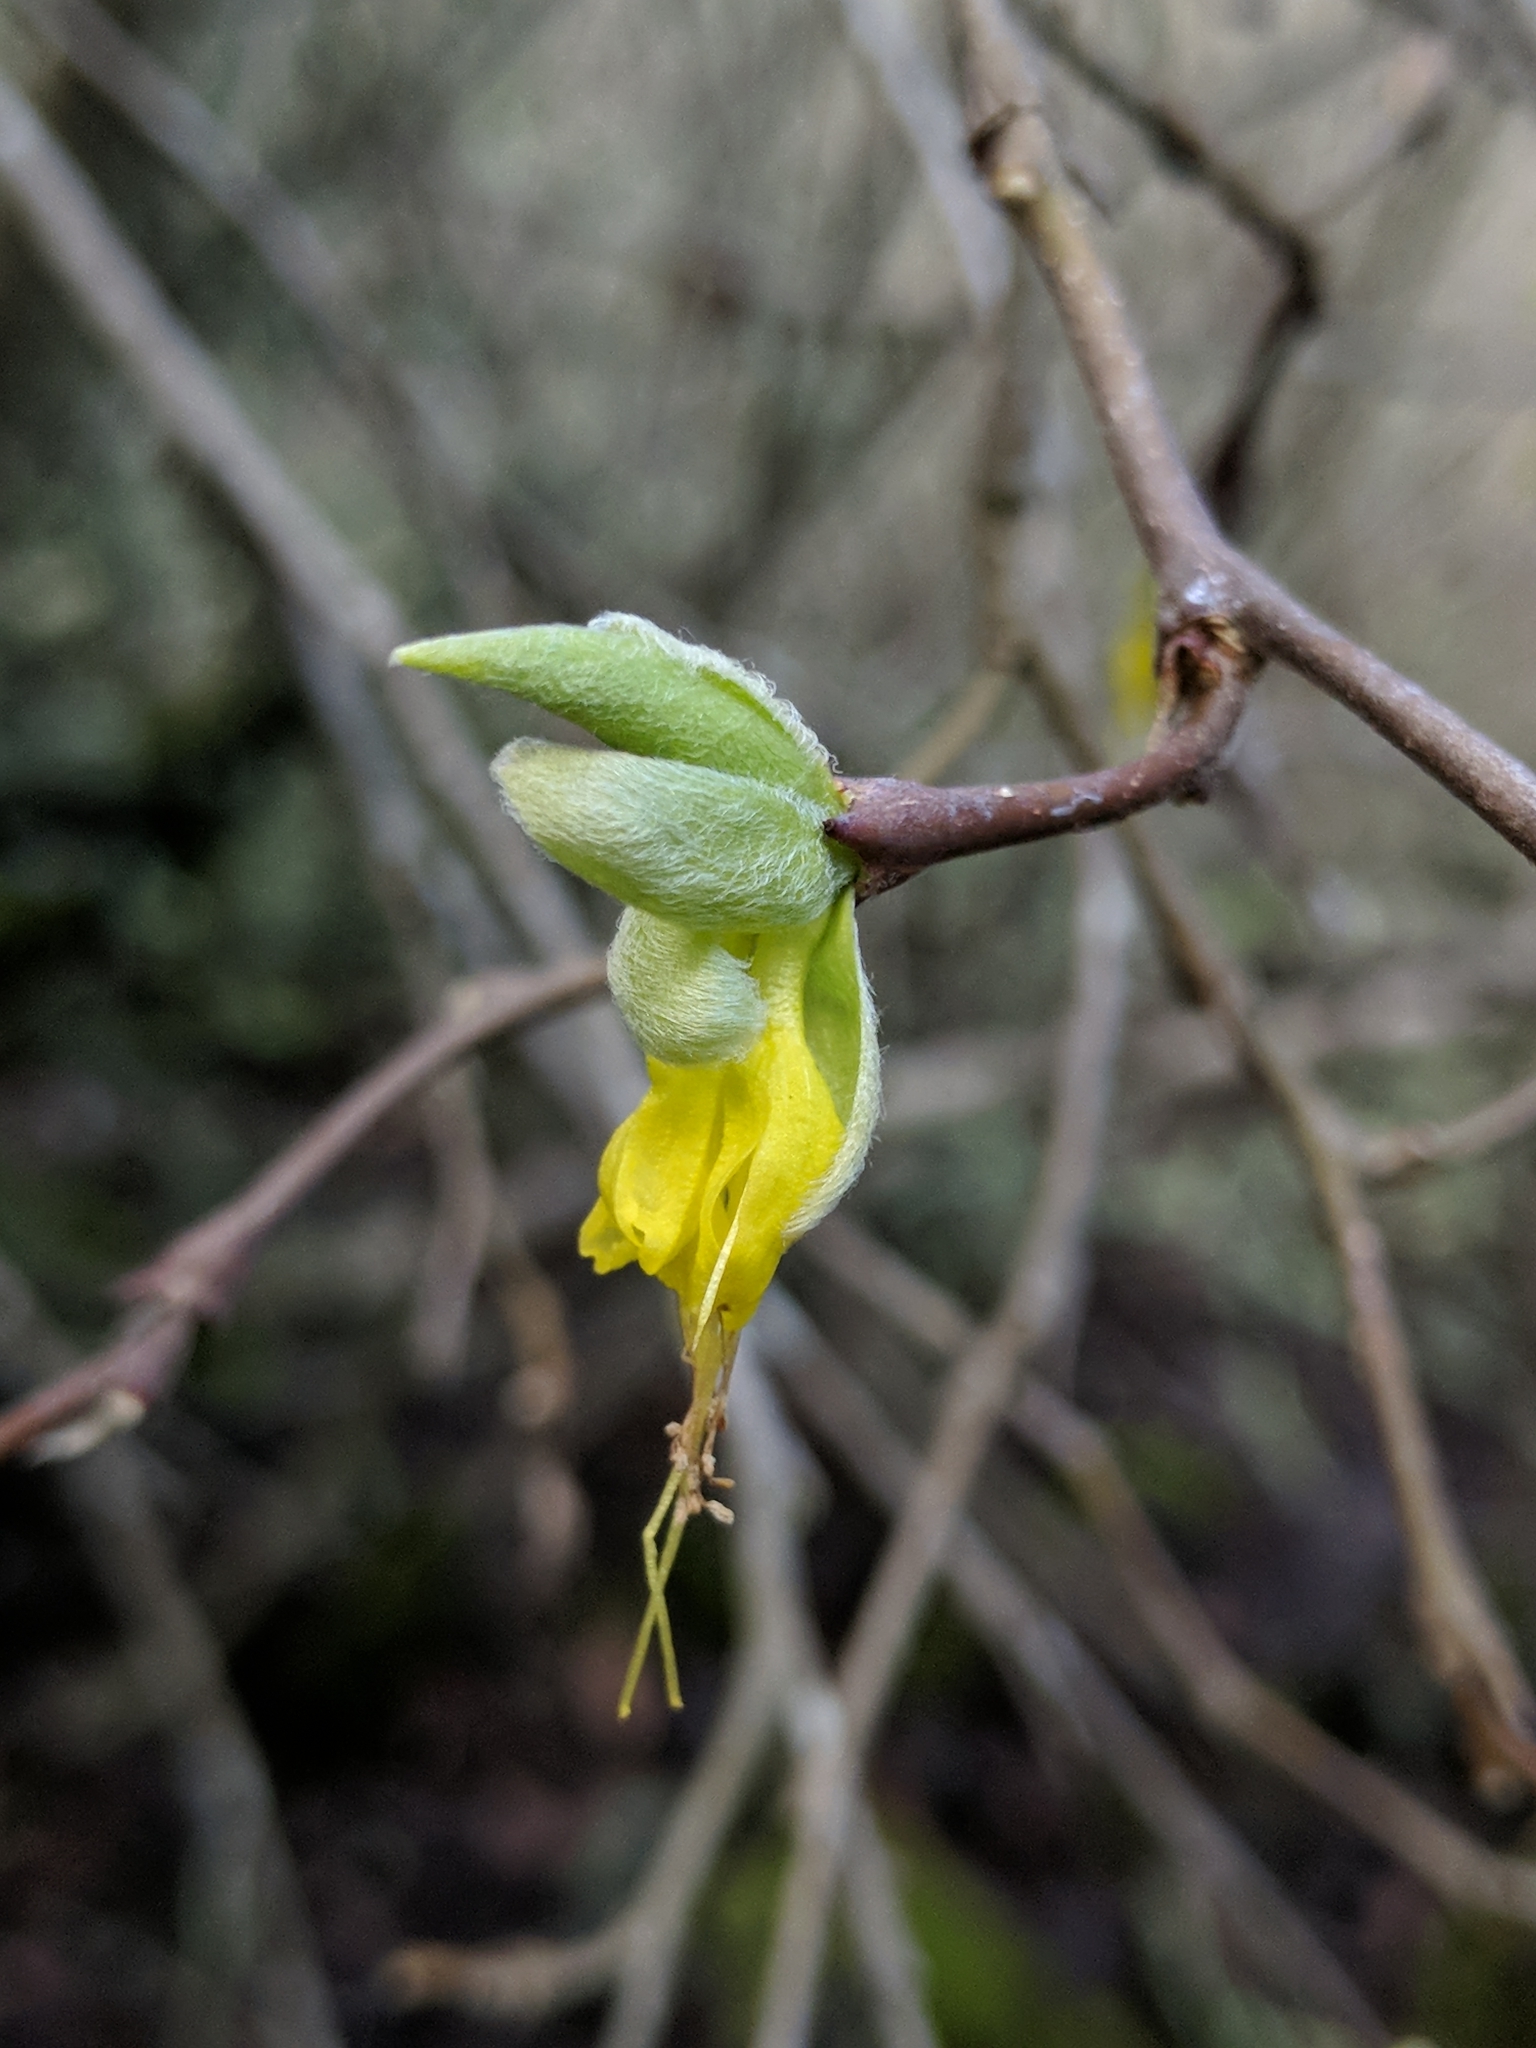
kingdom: Plantae
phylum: Tracheophyta
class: Magnoliopsida
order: Malvales
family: Thymelaeaceae
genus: Dirca
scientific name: Dirca occidentalis
